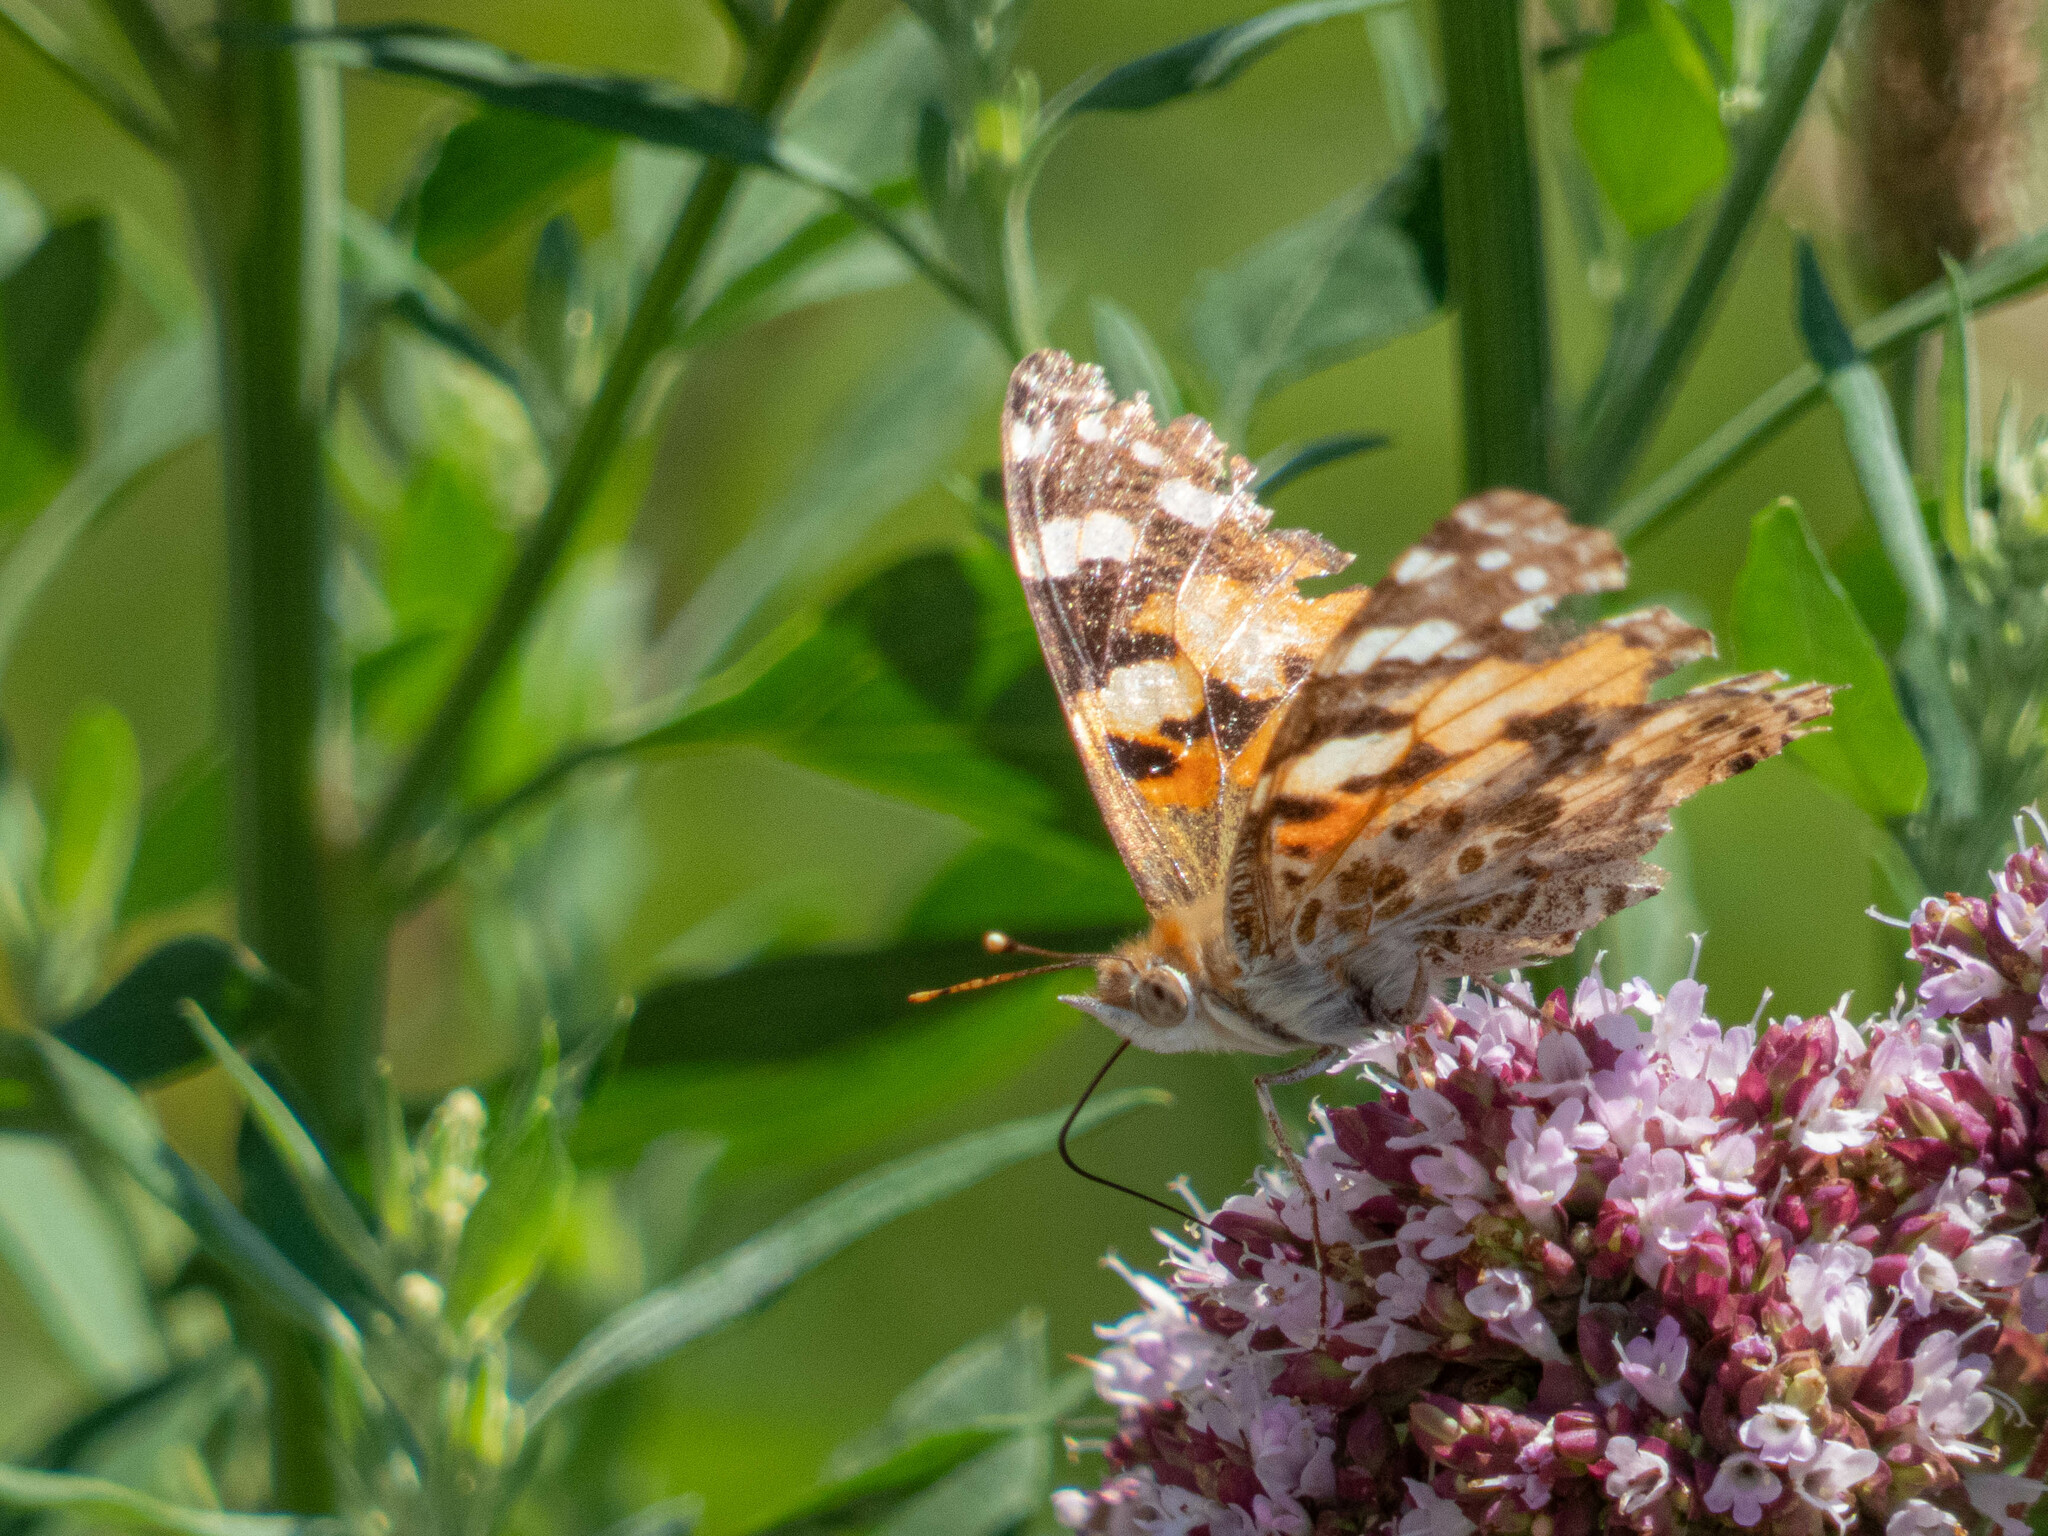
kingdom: Animalia
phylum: Arthropoda
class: Insecta
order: Lepidoptera
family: Nymphalidae
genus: Vanessa
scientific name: Vanessa cardui
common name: Painted lady
